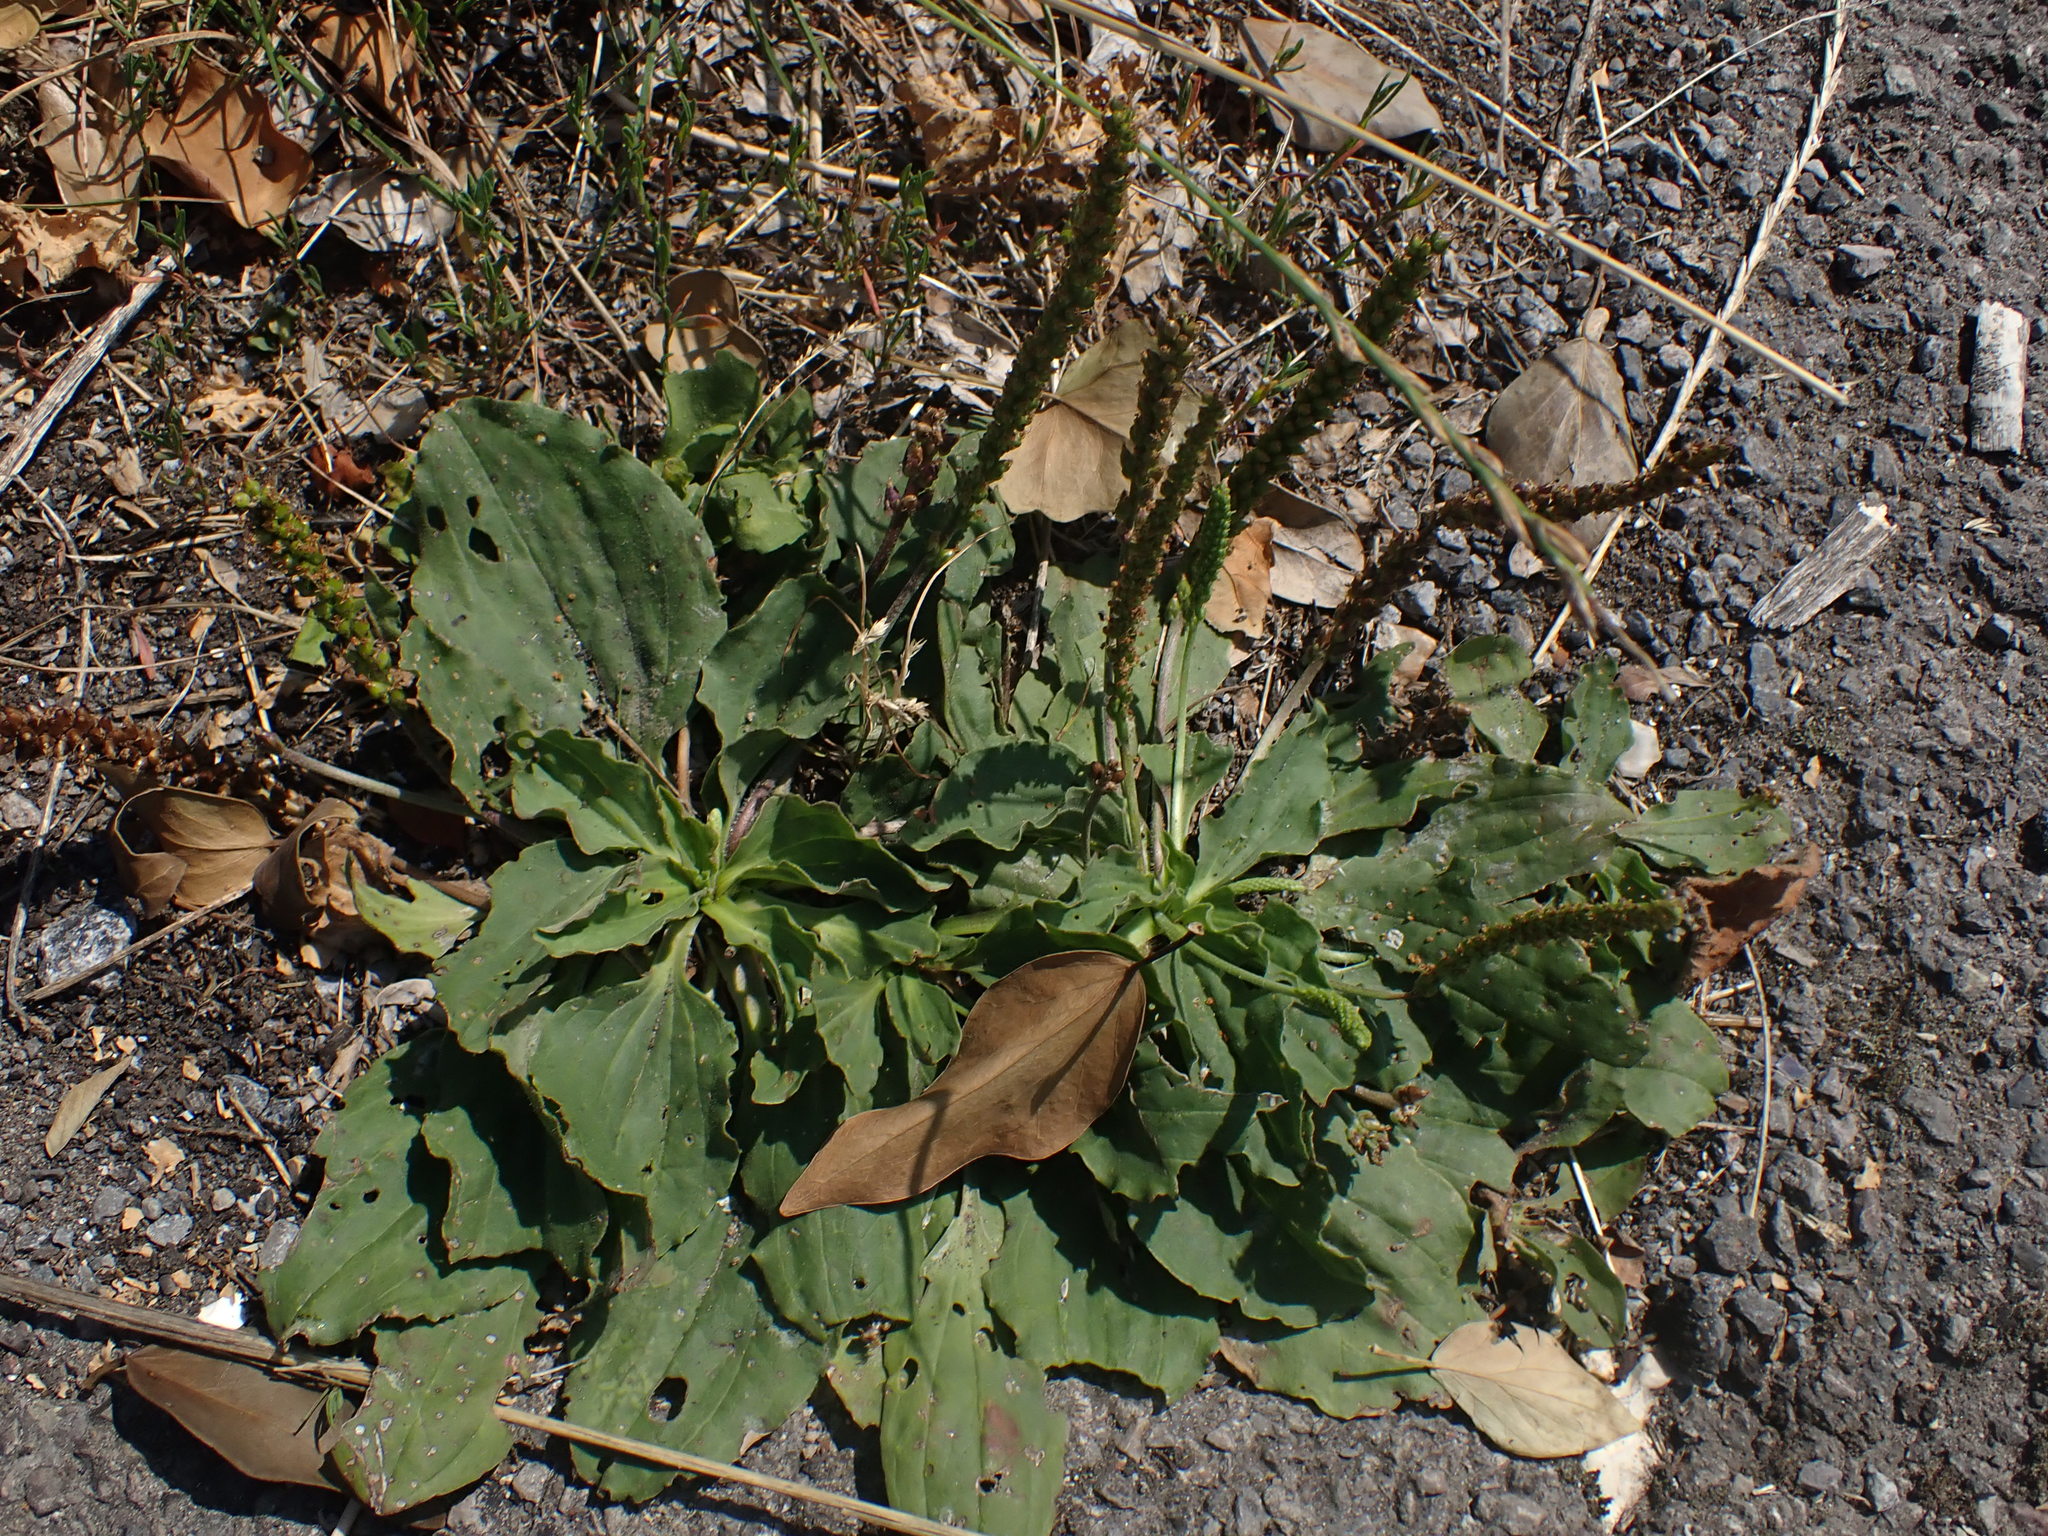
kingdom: Plantae
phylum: Tracheophyta
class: Magnoliopsida
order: Lamiales
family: Plantaginaceae
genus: Plantago
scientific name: Plantago major
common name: Common plantain
